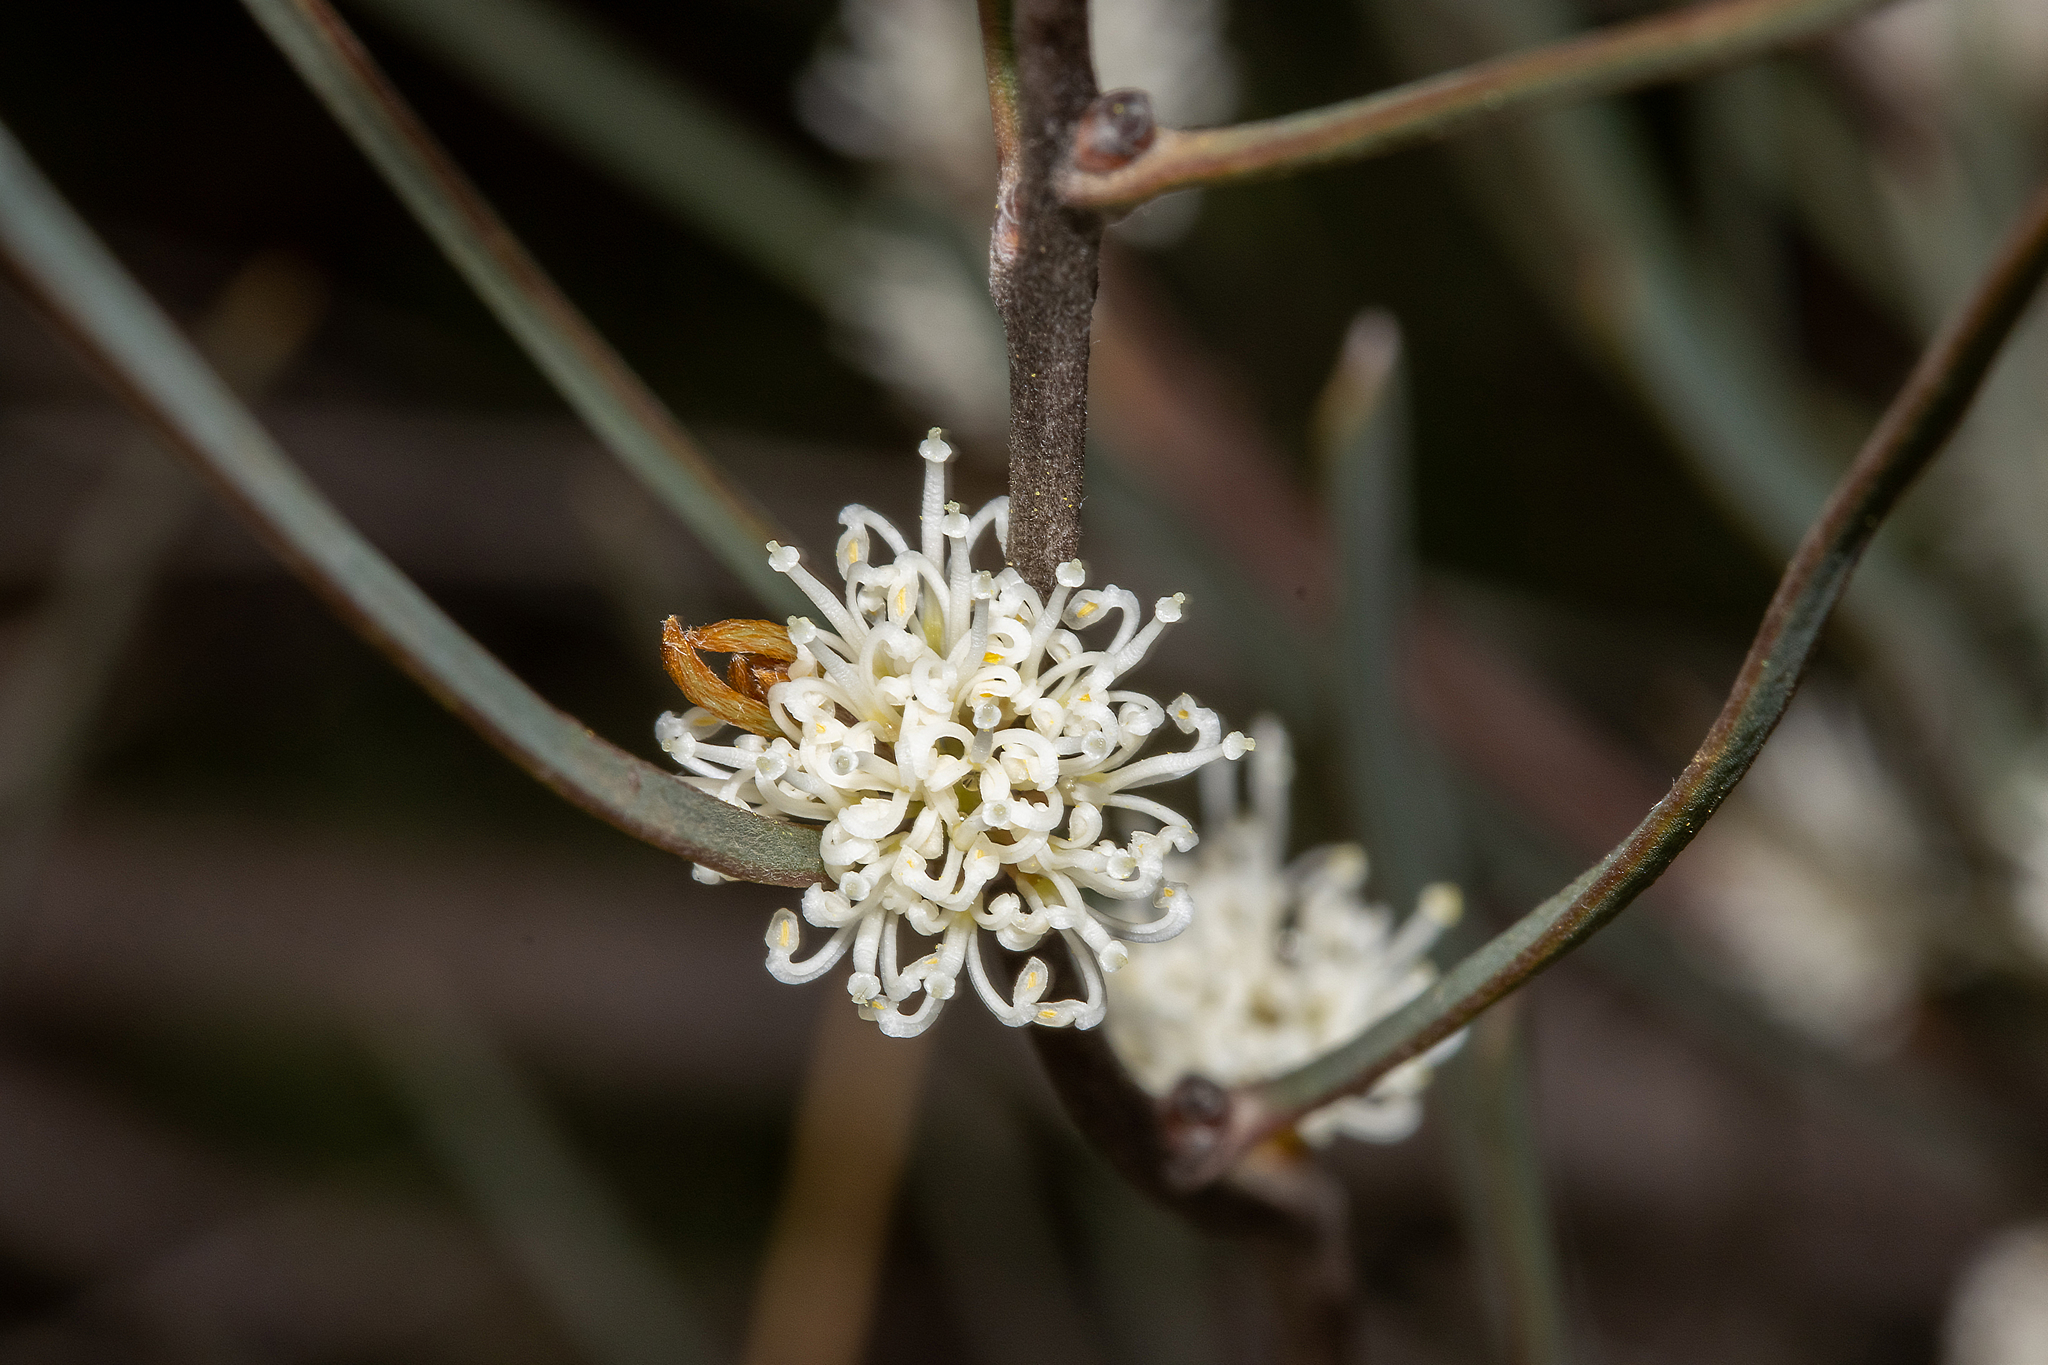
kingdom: Plantae
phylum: Tracheophyta
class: Magnoliopsida
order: Proteales
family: Proteaceae
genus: Hakea
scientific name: Hakea carinata
